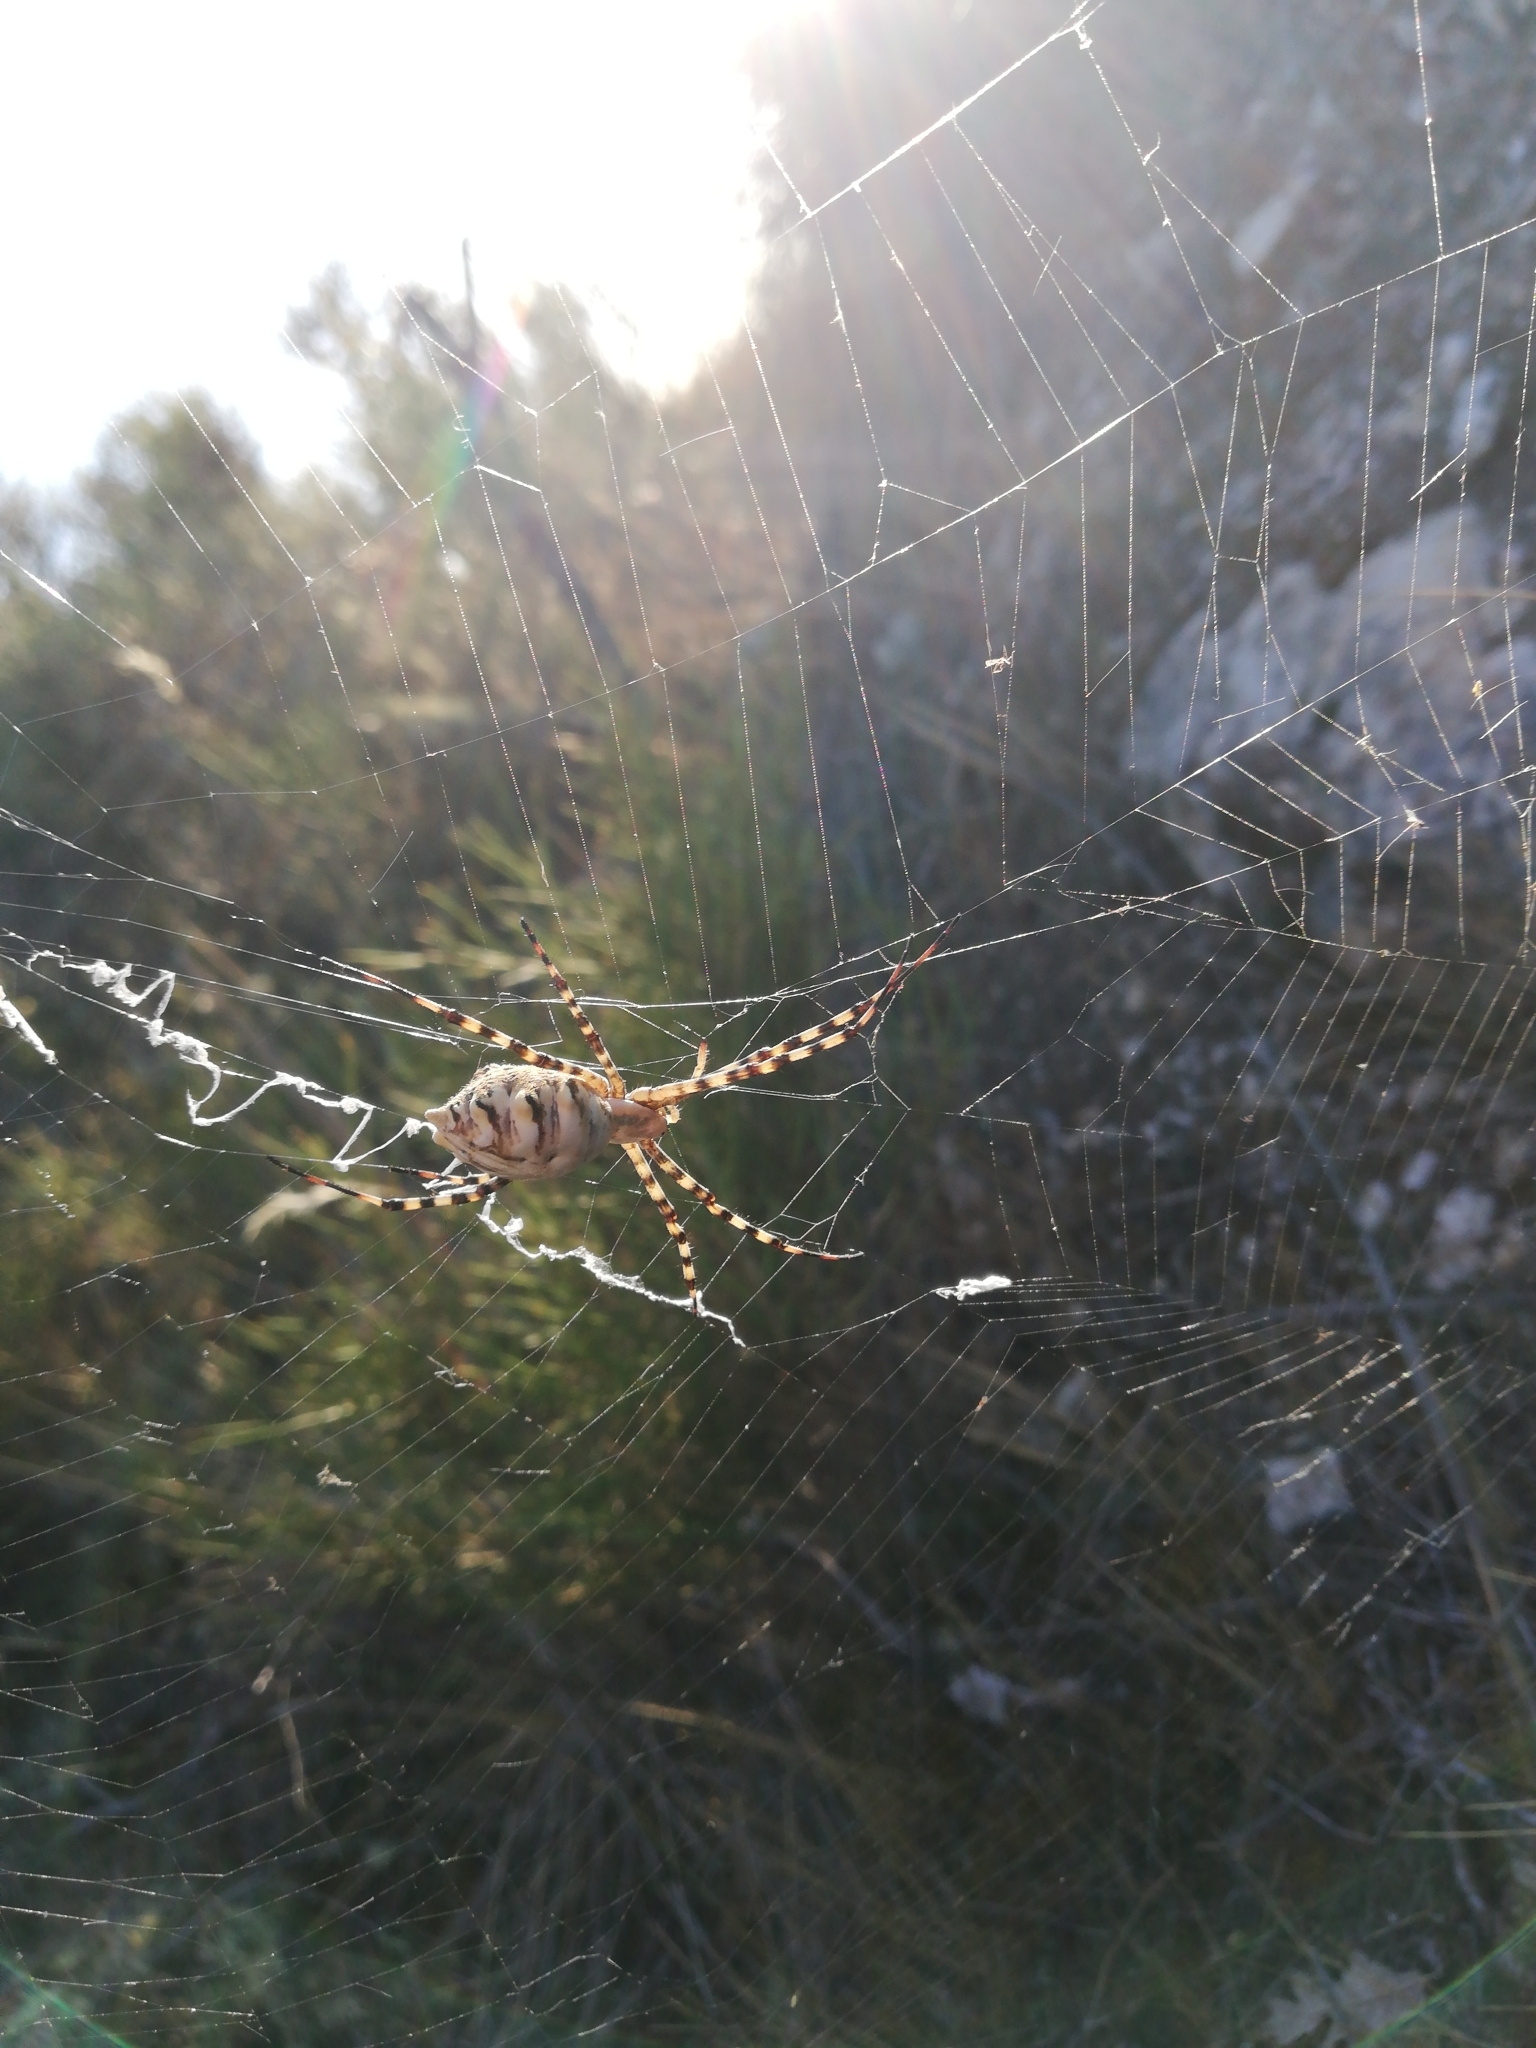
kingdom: Animalia
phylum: Arthropoda
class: Arachnida
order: Araneae
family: Araneidae
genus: Argiope
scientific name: Argiope lobata
